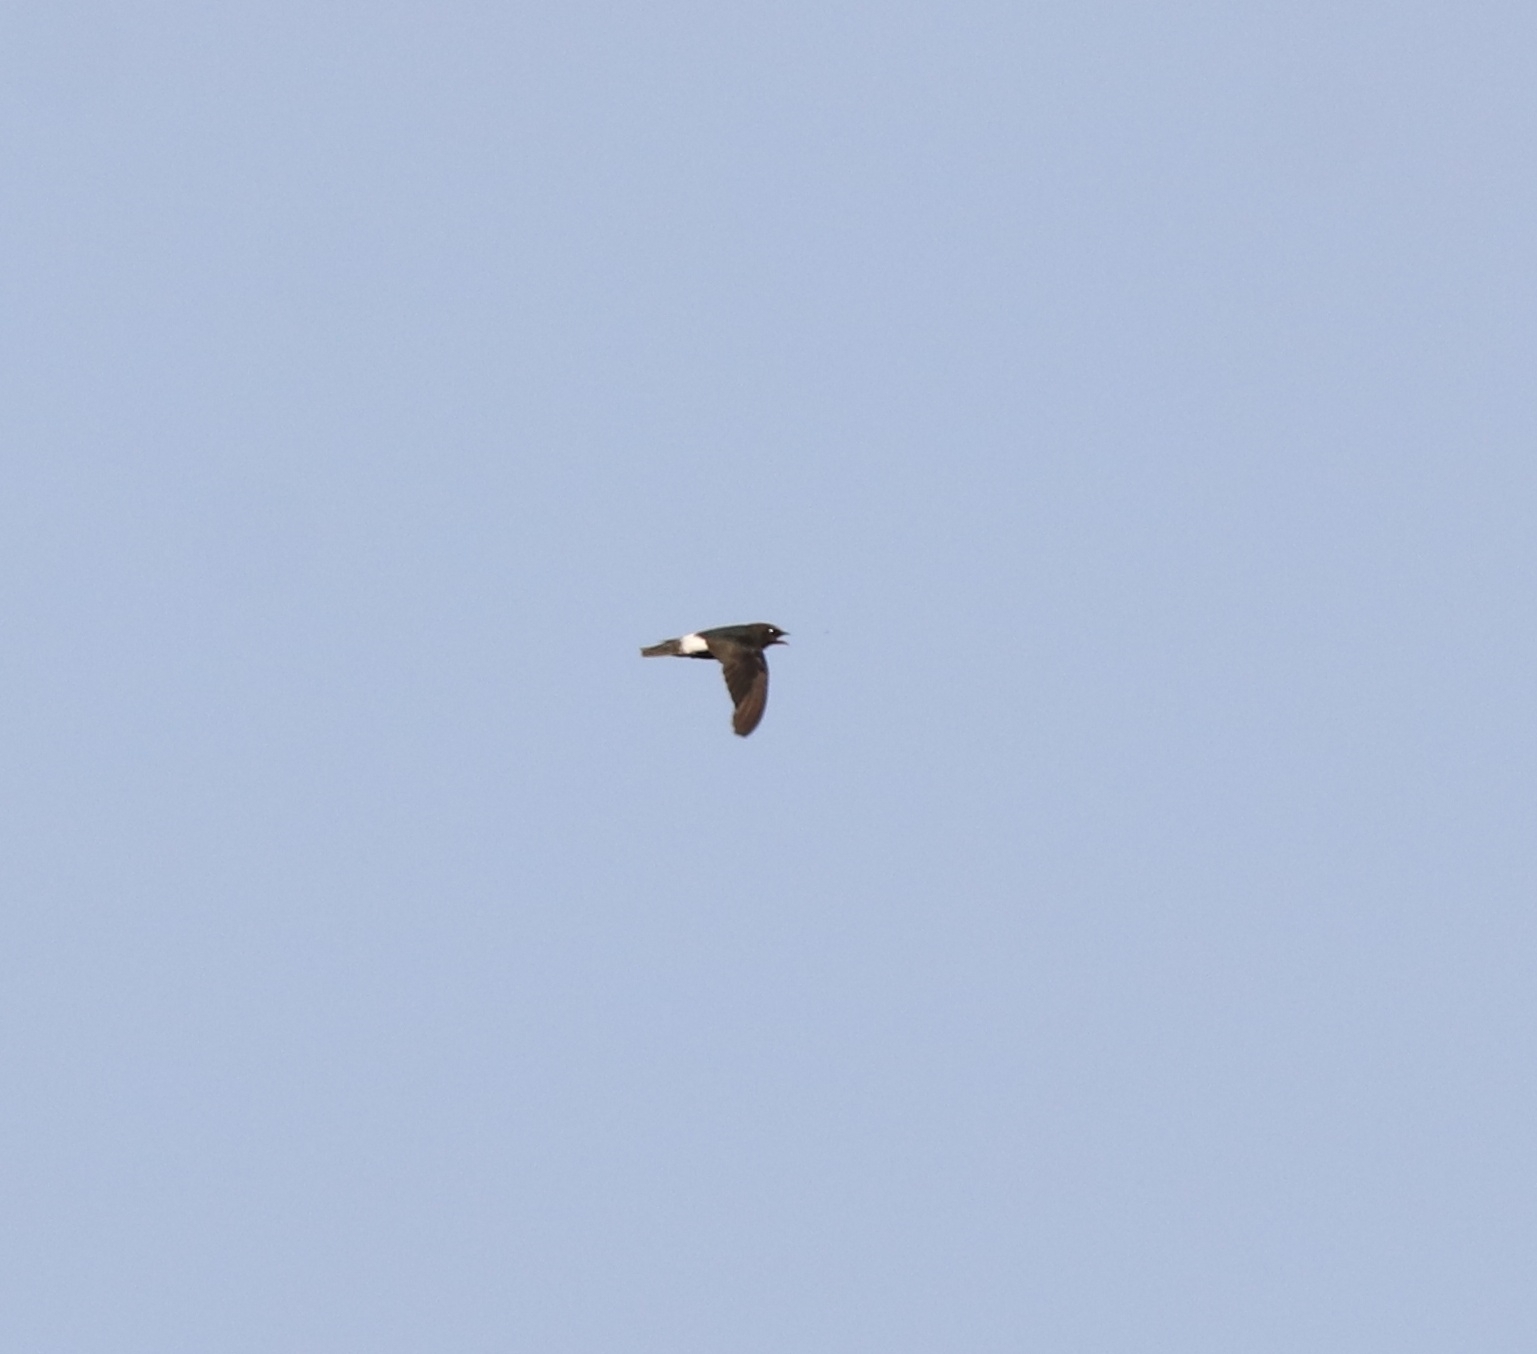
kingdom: Animalia
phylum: Chordata
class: Aves
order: Apodiformes
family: Apodidae
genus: Apus
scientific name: Apus affinis
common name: Little swift
